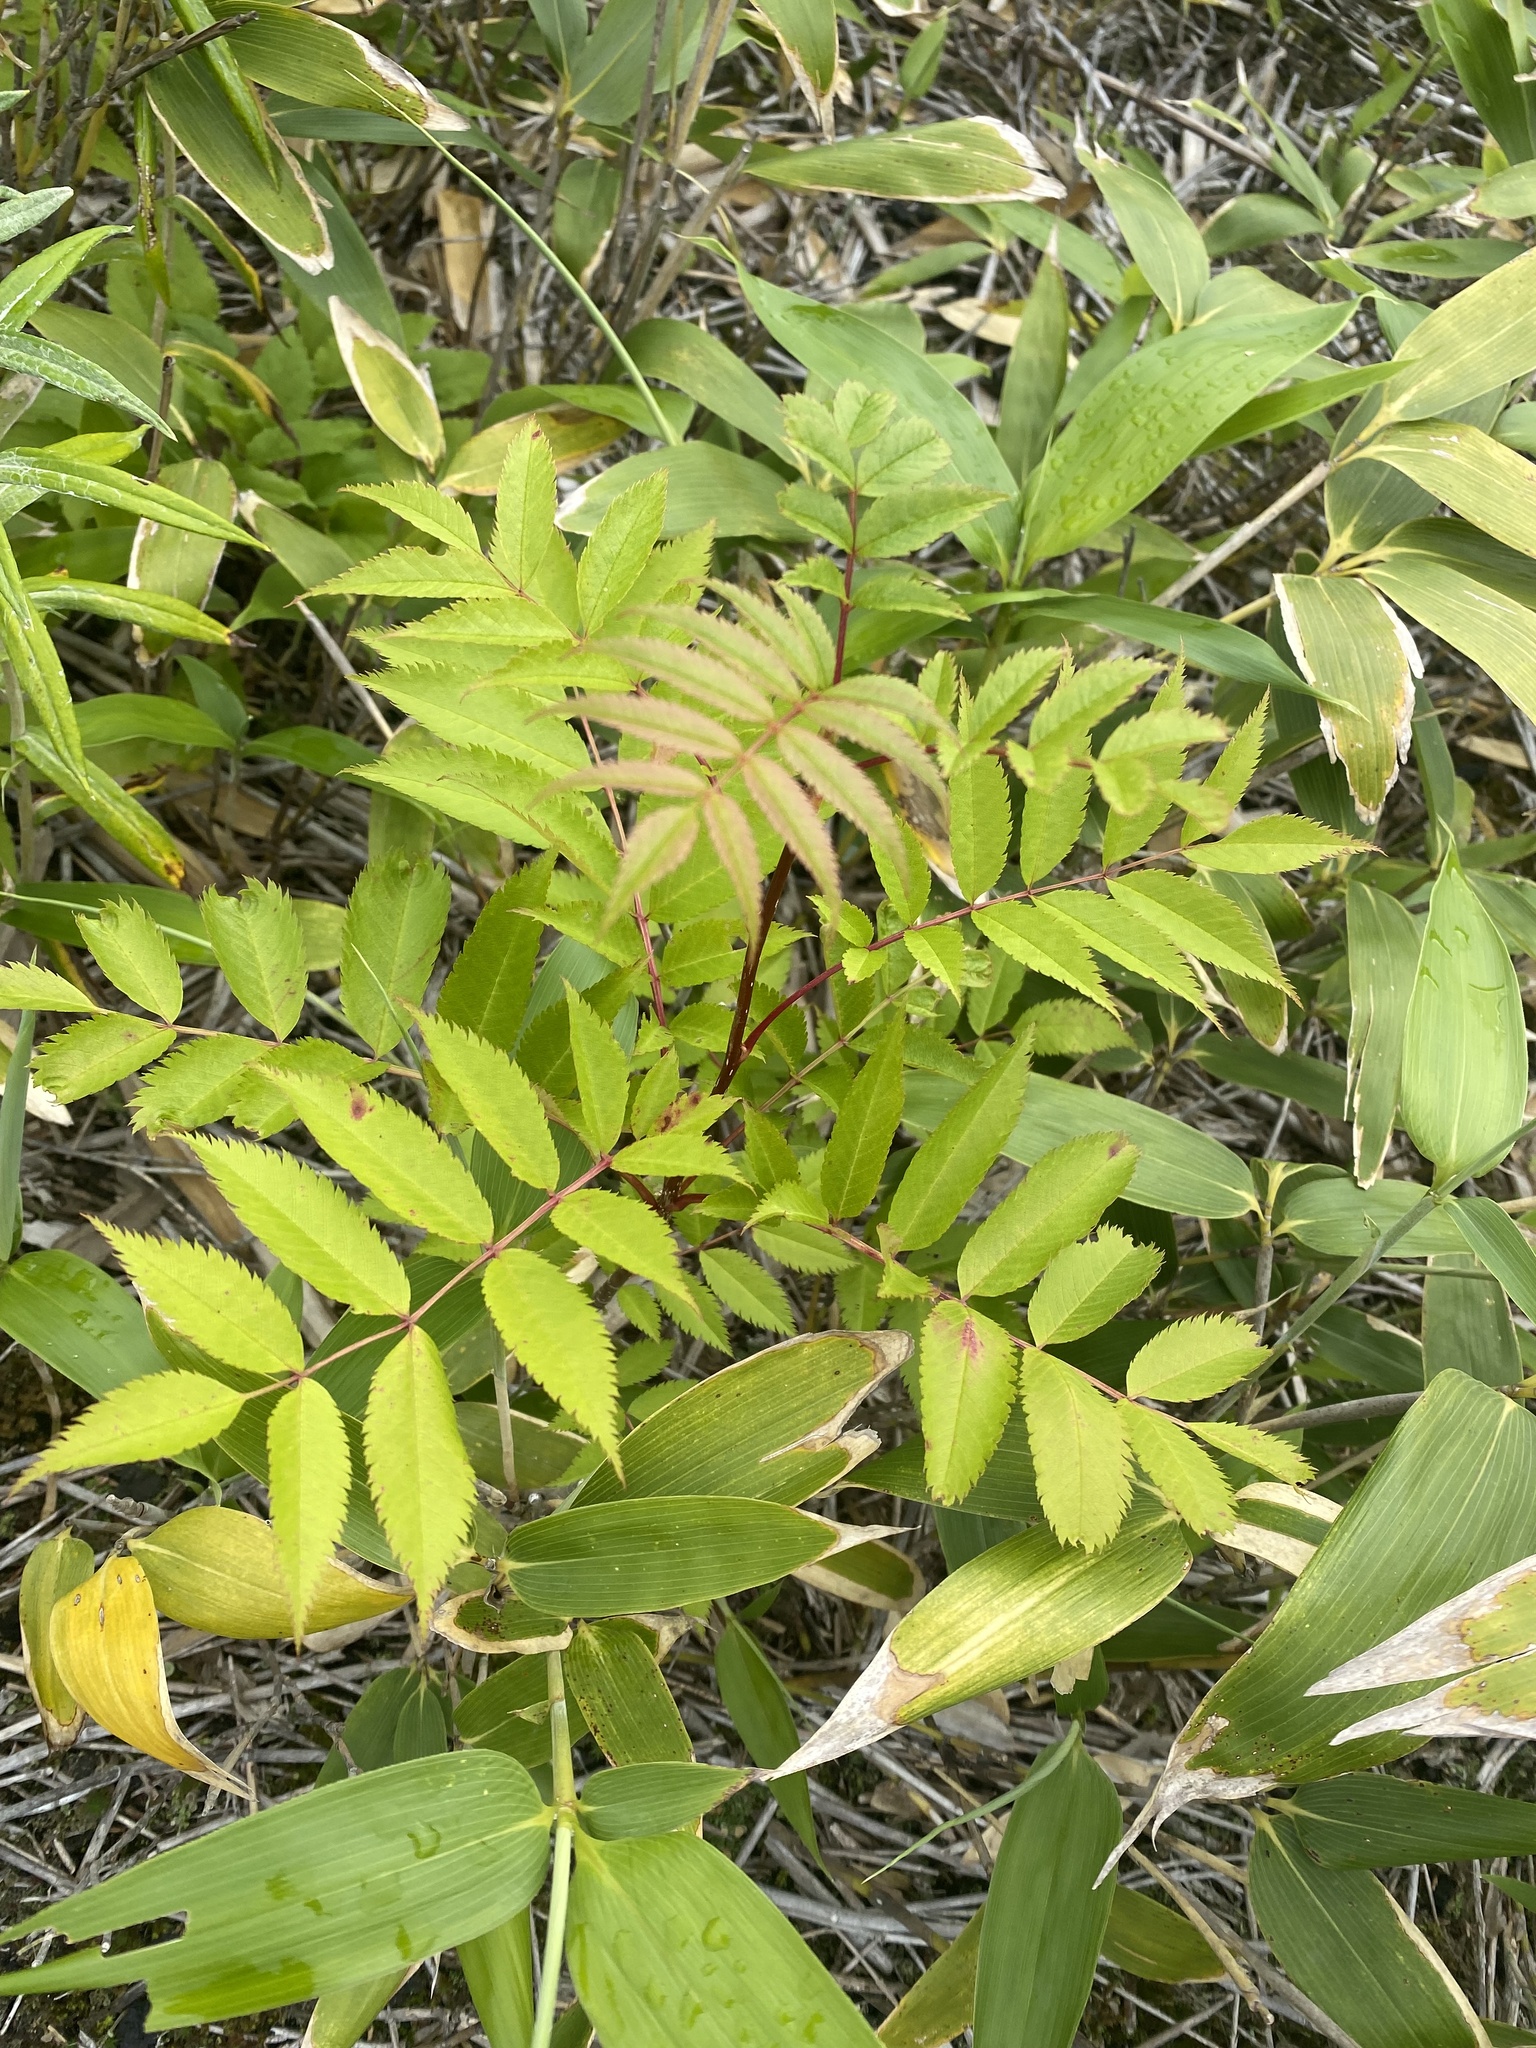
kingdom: Plantae
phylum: Tracheophyta
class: Magnoliopsida
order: Rosales
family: Rosaceae
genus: Sorbus
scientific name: Sorbus commixta
